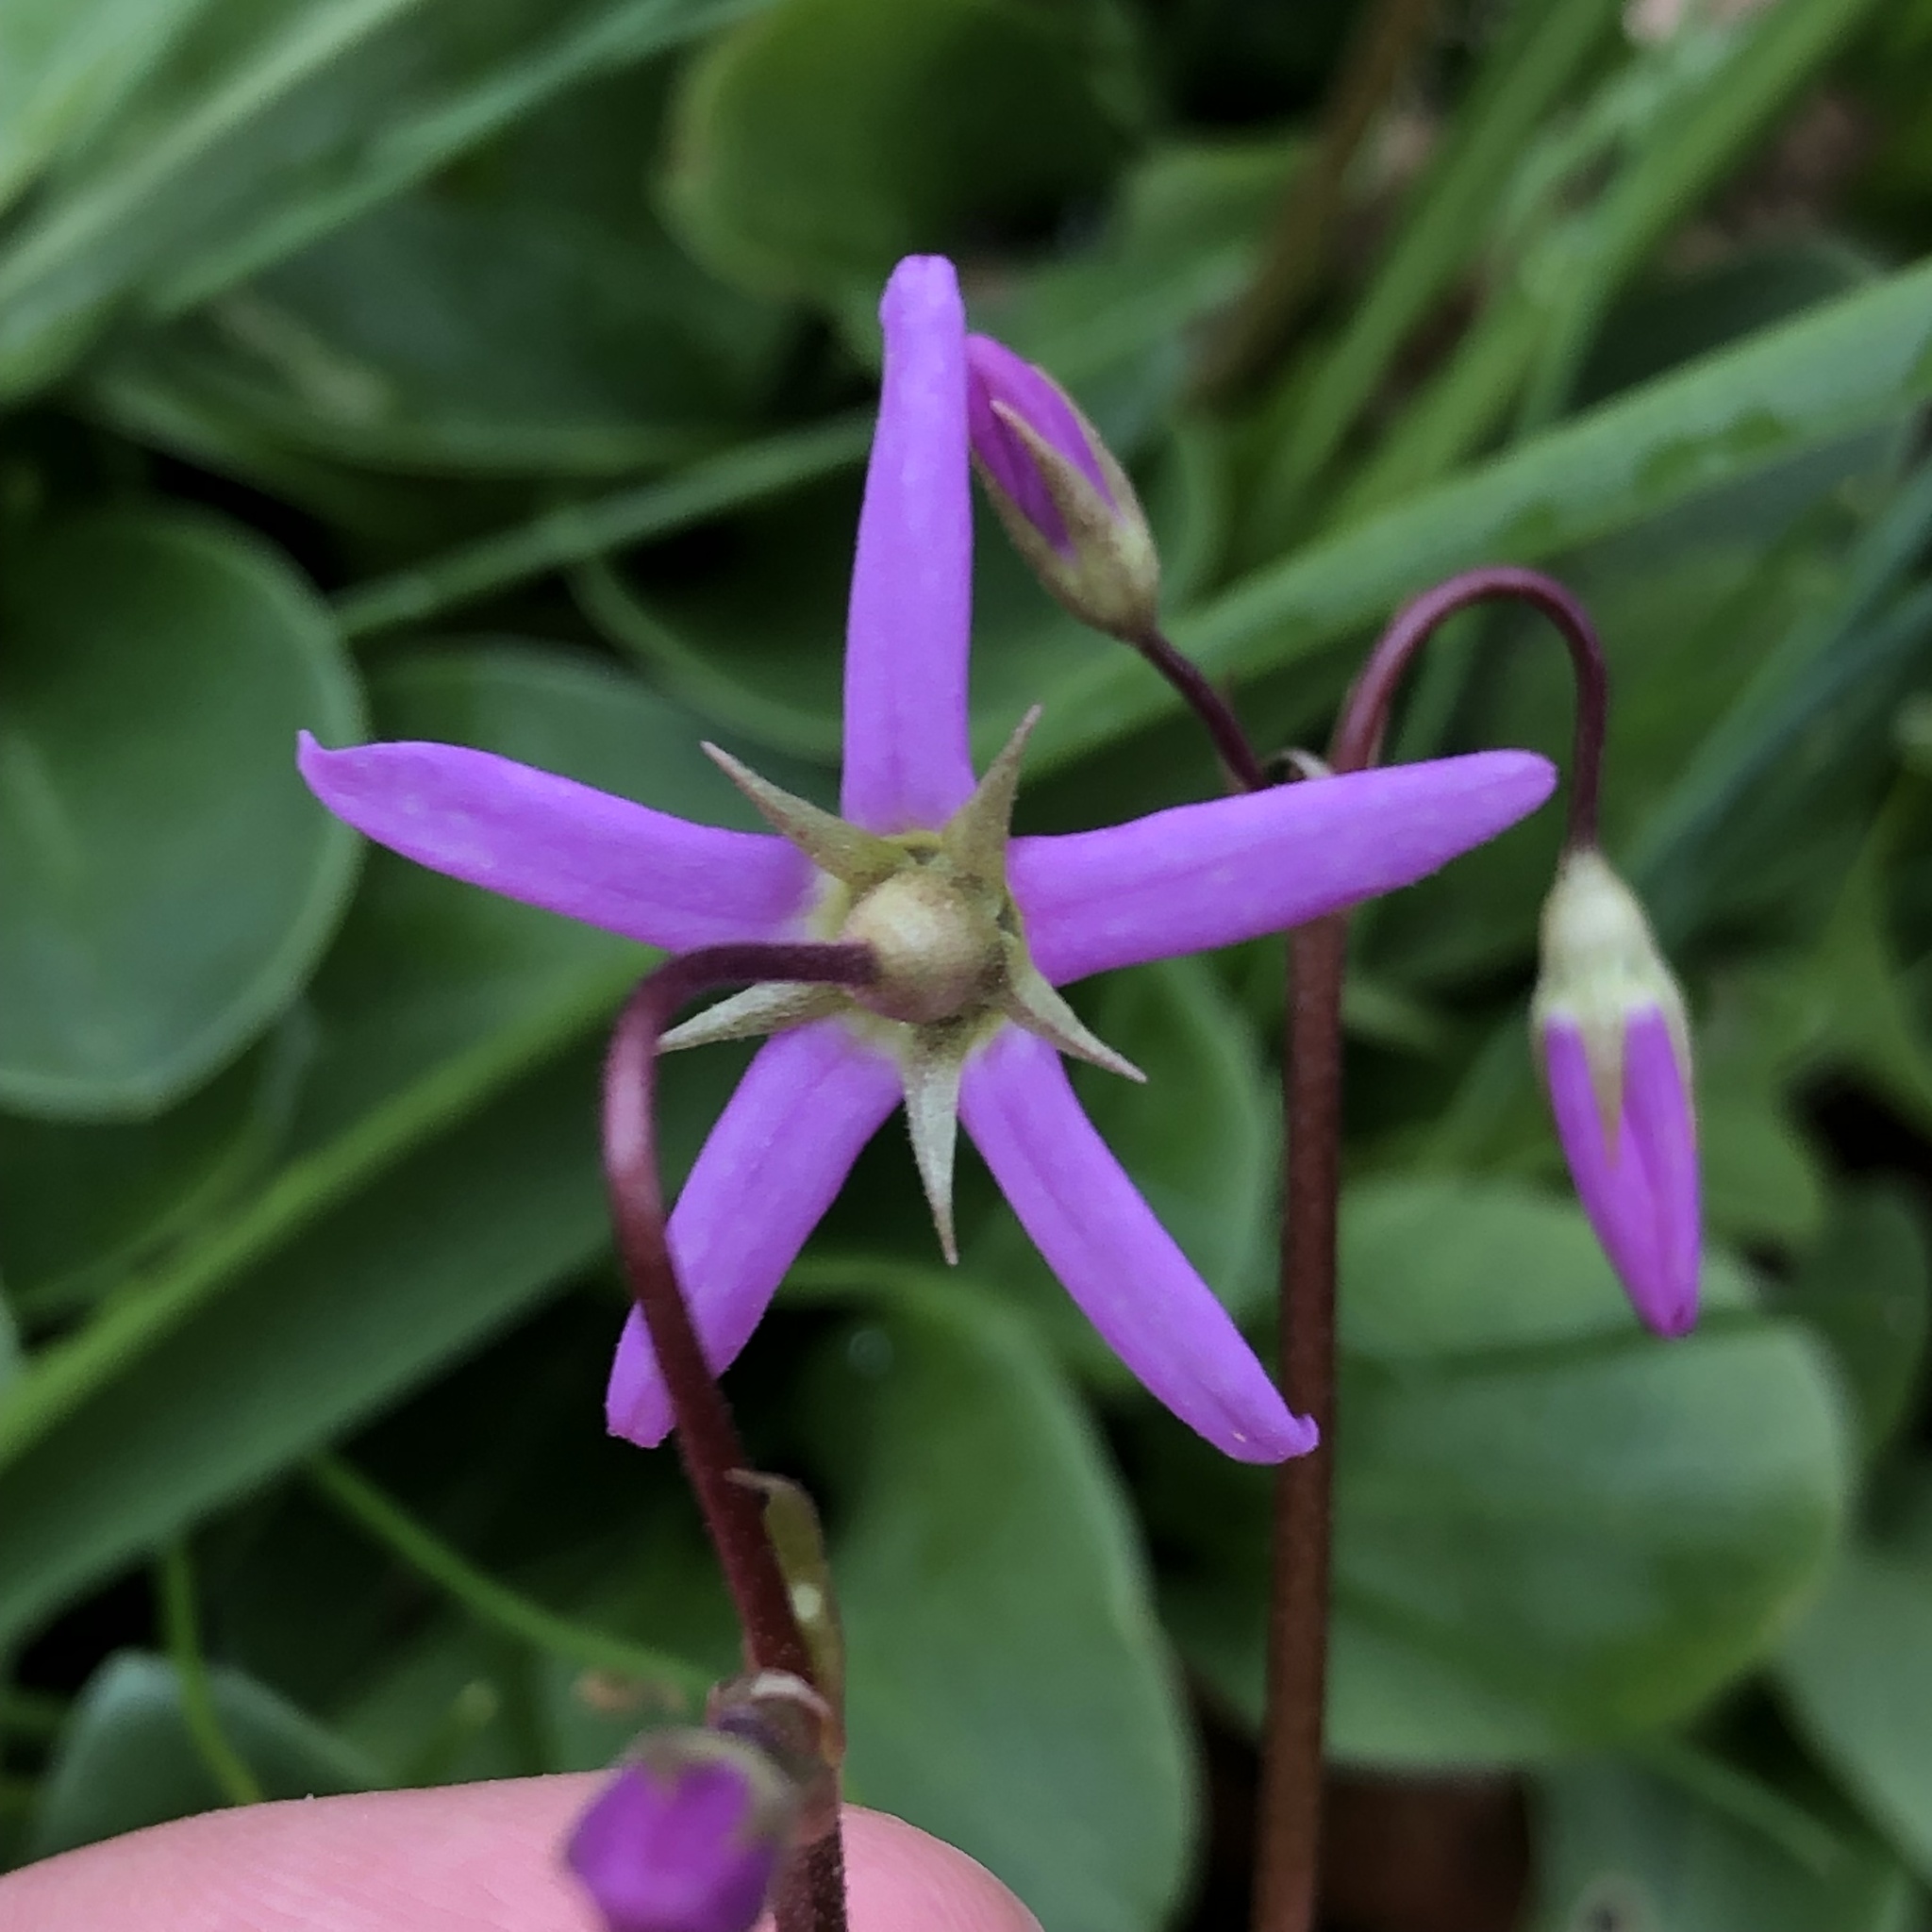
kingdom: Plantae
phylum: Tracheophyta
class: Magnoliopsida
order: Ericales
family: Primulaceae
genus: Dodecatheon
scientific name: Dodecatheon hendersonii
